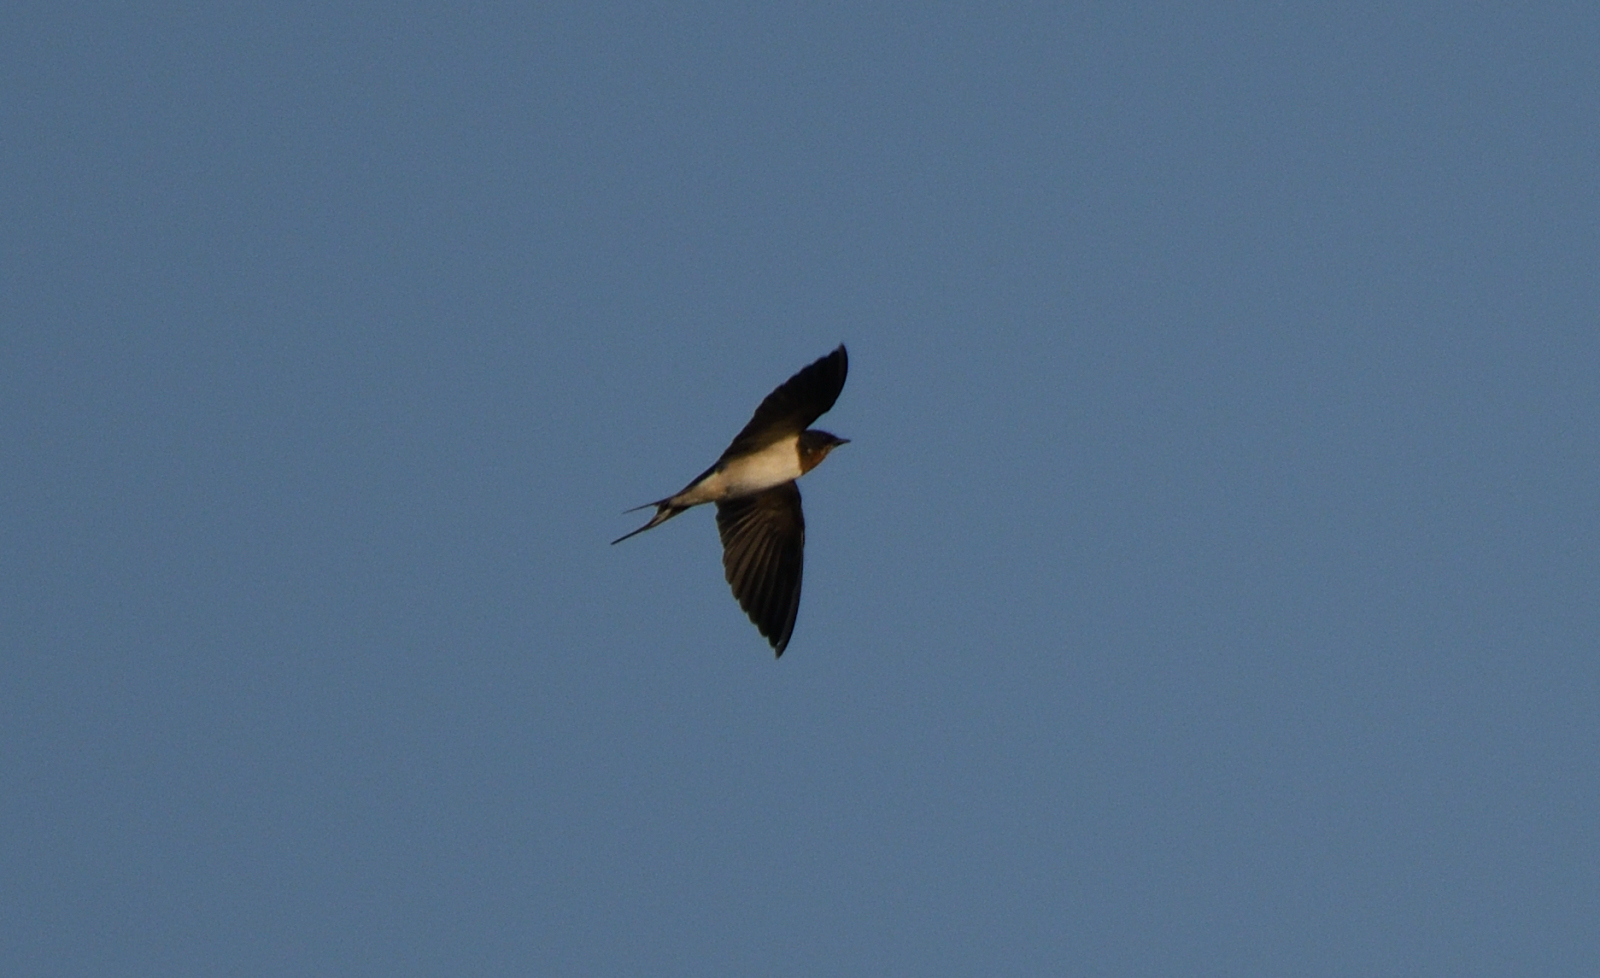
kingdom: Animalia
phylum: Chordata
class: Aves
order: Passeriformes
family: Hirundinidae
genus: Hirundo
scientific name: Hirundo rustica
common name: Barn swallow
